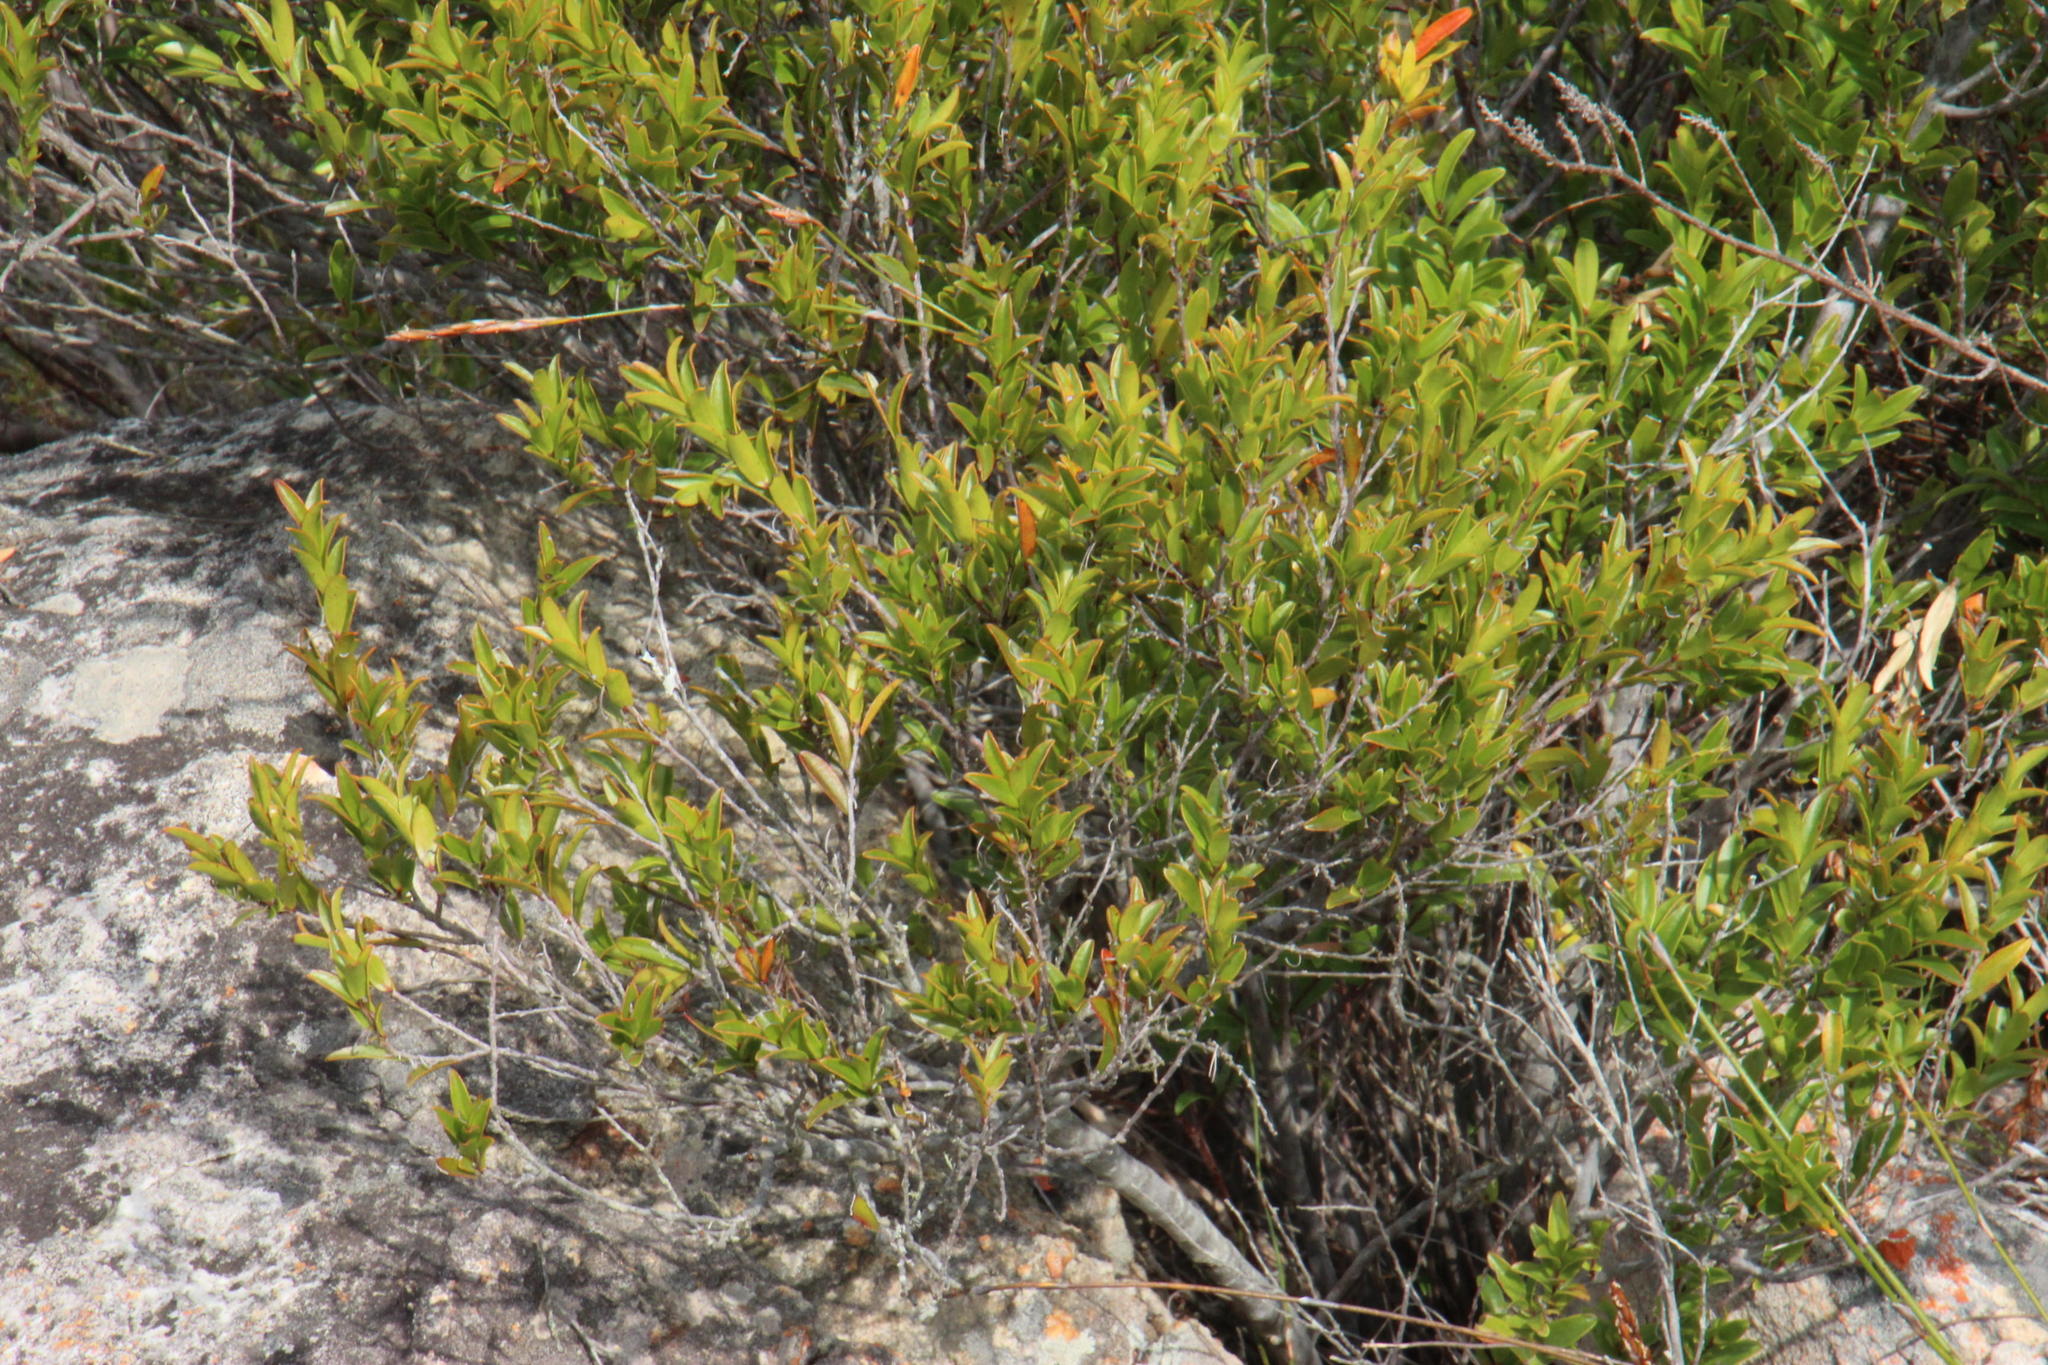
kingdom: Plantae
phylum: Tracheophyta
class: Magnoliopsida
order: Ericales
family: Ebenaceae
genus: Diospyros
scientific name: Diospyros glabra
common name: Fynbos star apple
